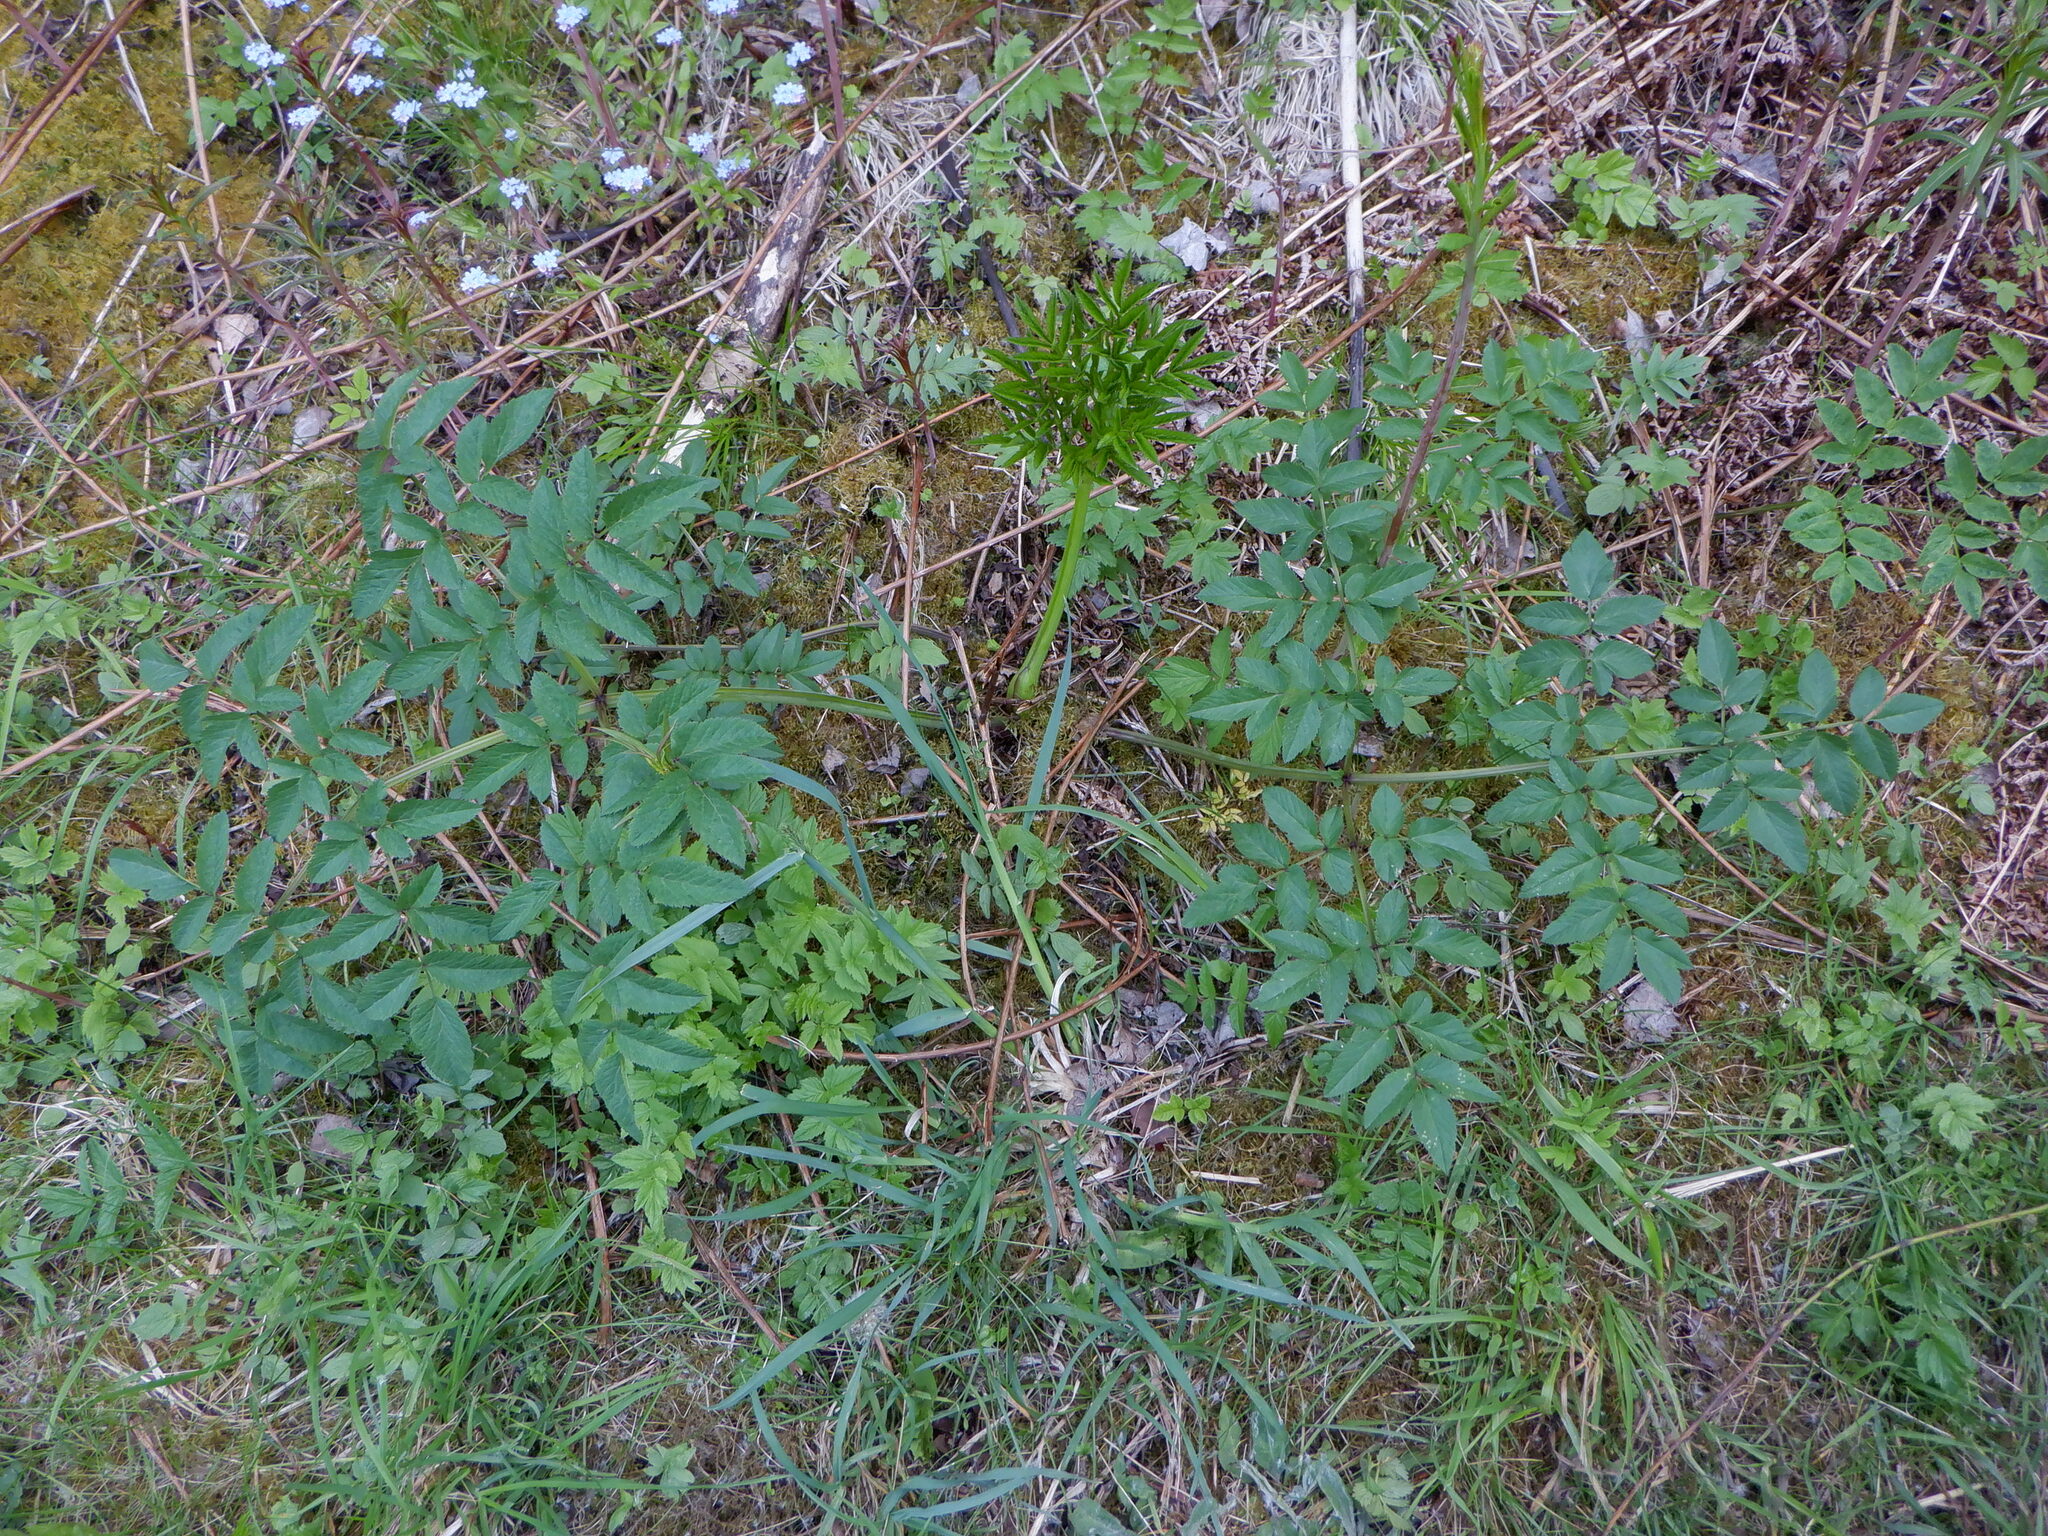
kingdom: Plantae
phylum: Tracheophyta
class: Magnoliopsida
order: Apiales
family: Apiaceae
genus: Angelica
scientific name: Angelica sylvestris
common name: Wild angelica
